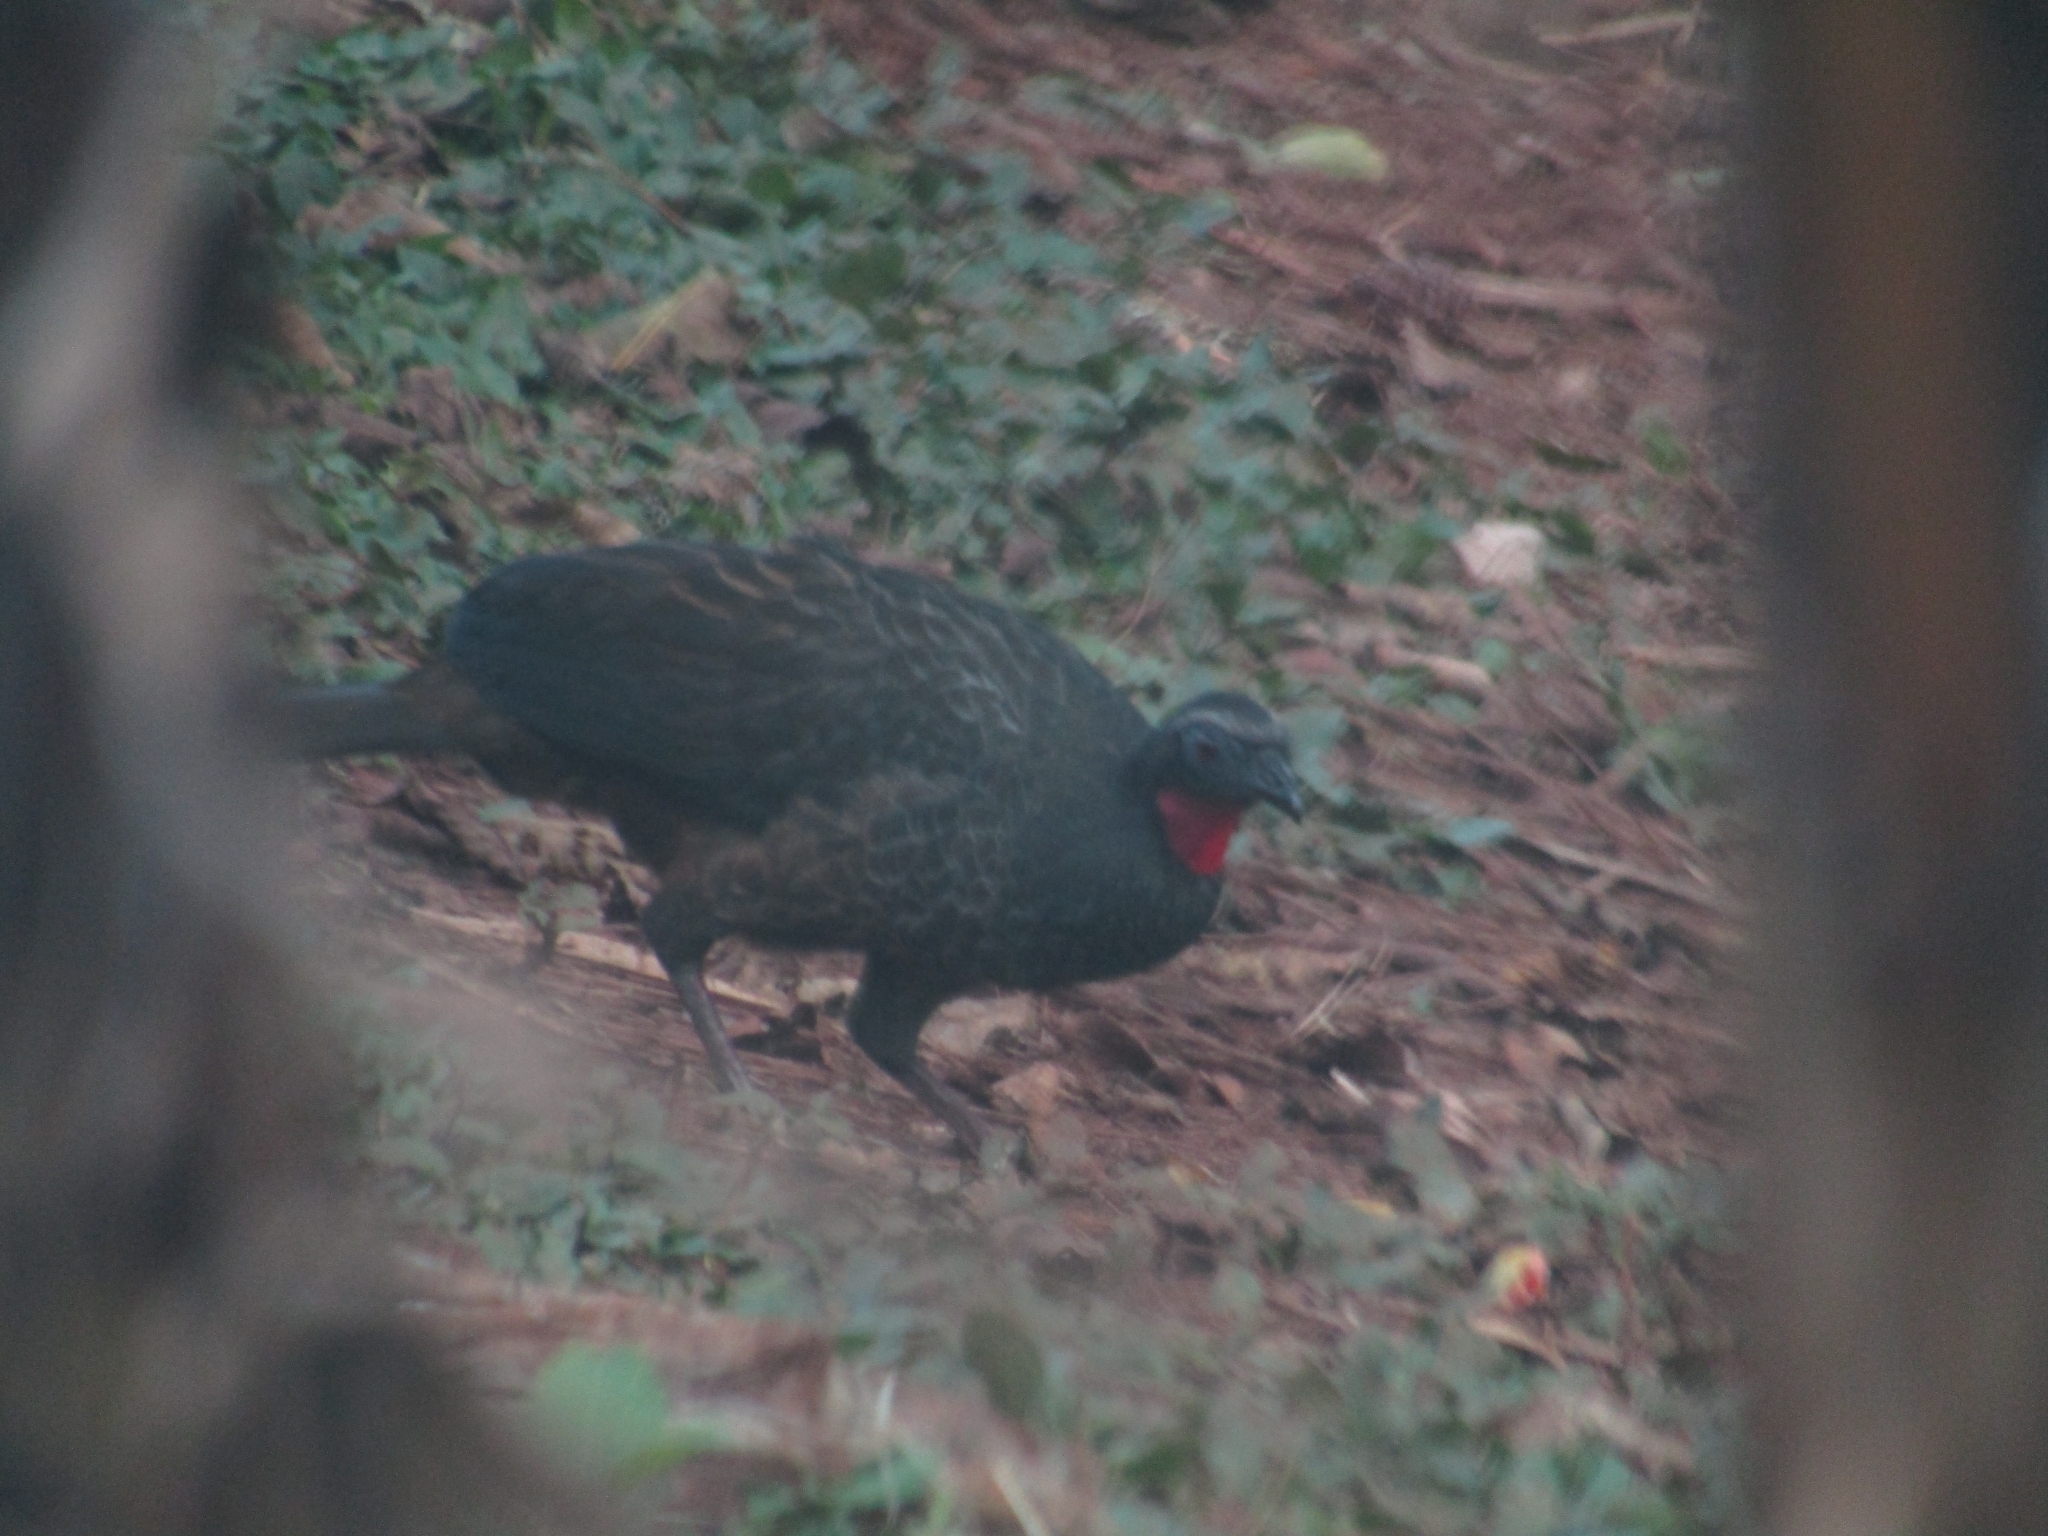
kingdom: Animalia
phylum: Chordata
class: Aves
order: Galliformes
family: Cracidae
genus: Penelope
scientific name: Penelope superciliaris
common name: Rusty-margined guan
